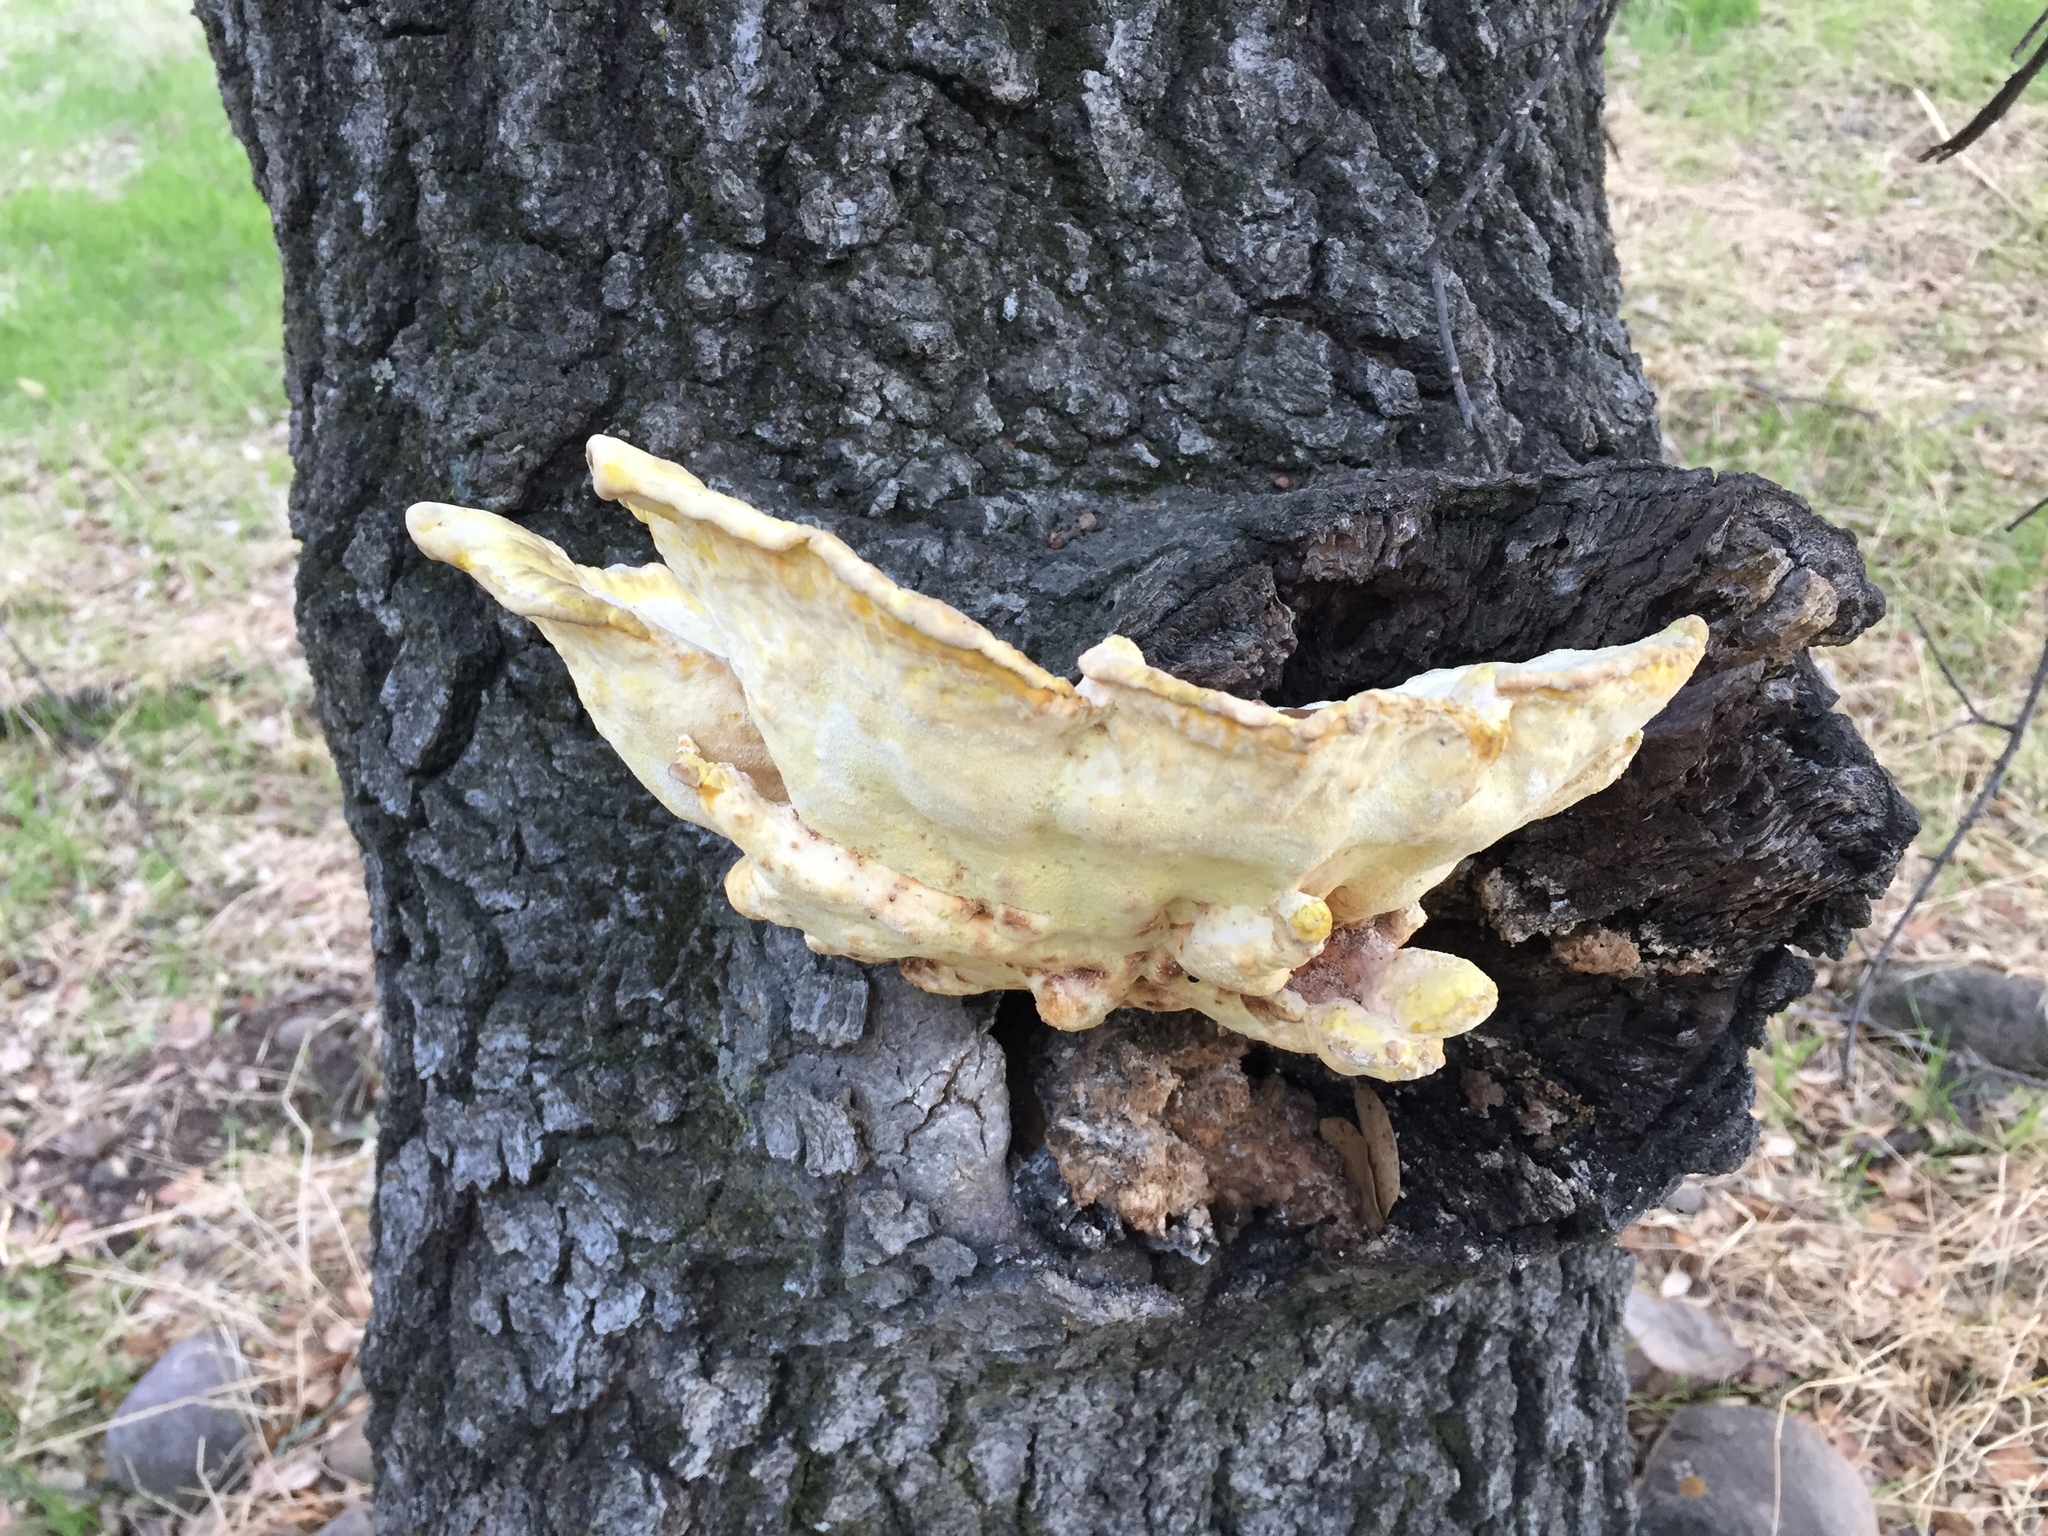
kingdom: Fungi
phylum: Basidiomycota
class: Agaricomycetes
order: Polyporales
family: Laetiporaceae
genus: Laetiporus
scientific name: Laetiporus gilbertsonii
